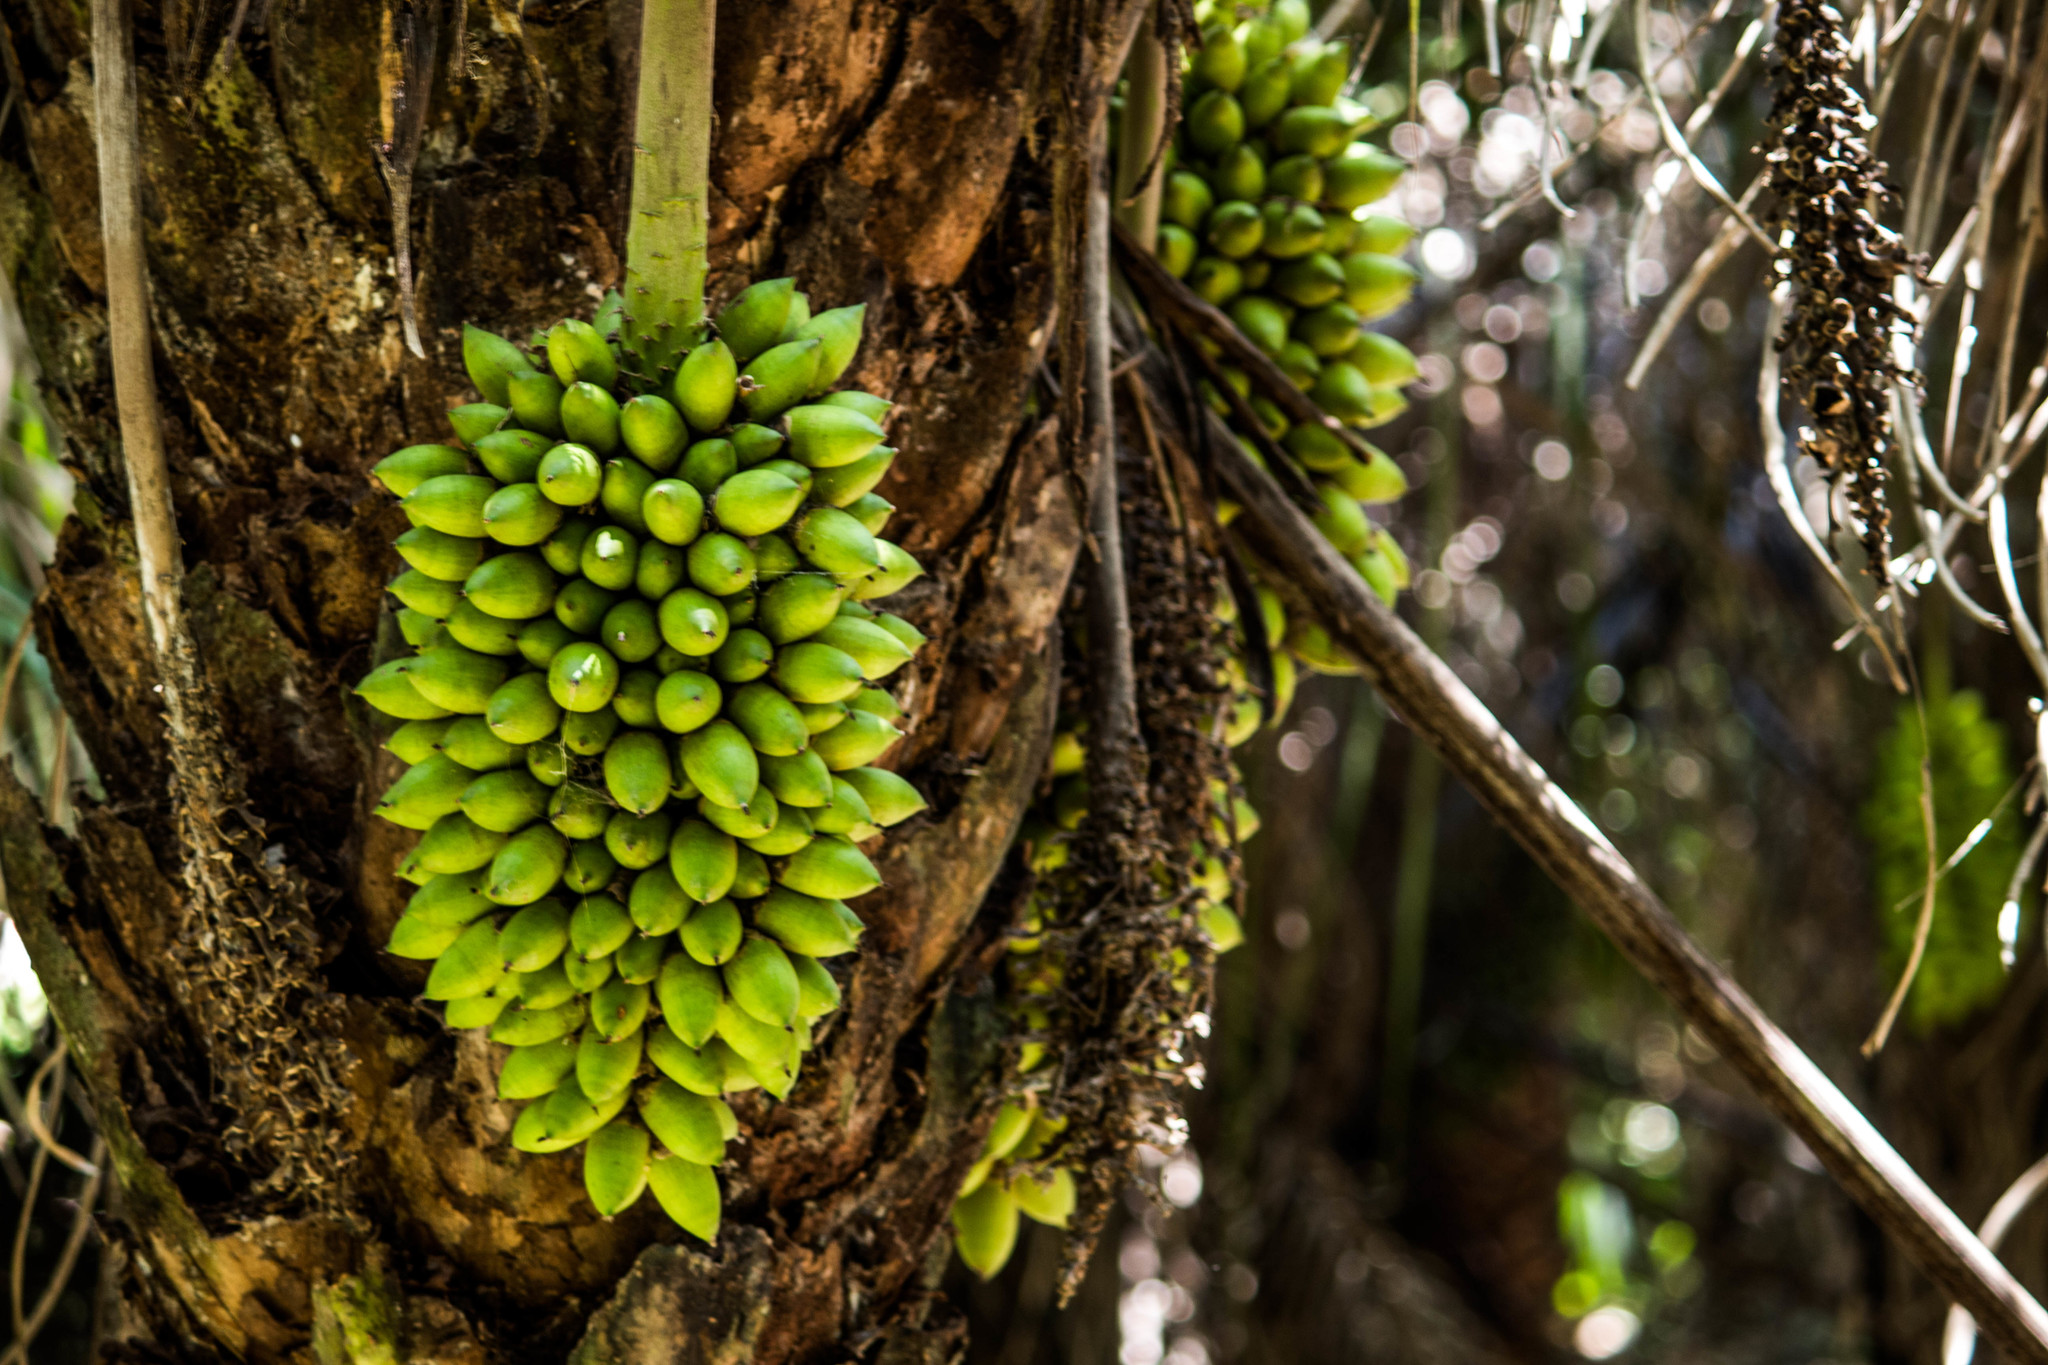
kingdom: Plantae
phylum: Tracheophyta
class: Liliopsida
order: Arecales
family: Arecaceae
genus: Attalea
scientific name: Attalea phalerata
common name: Urucuri palm
